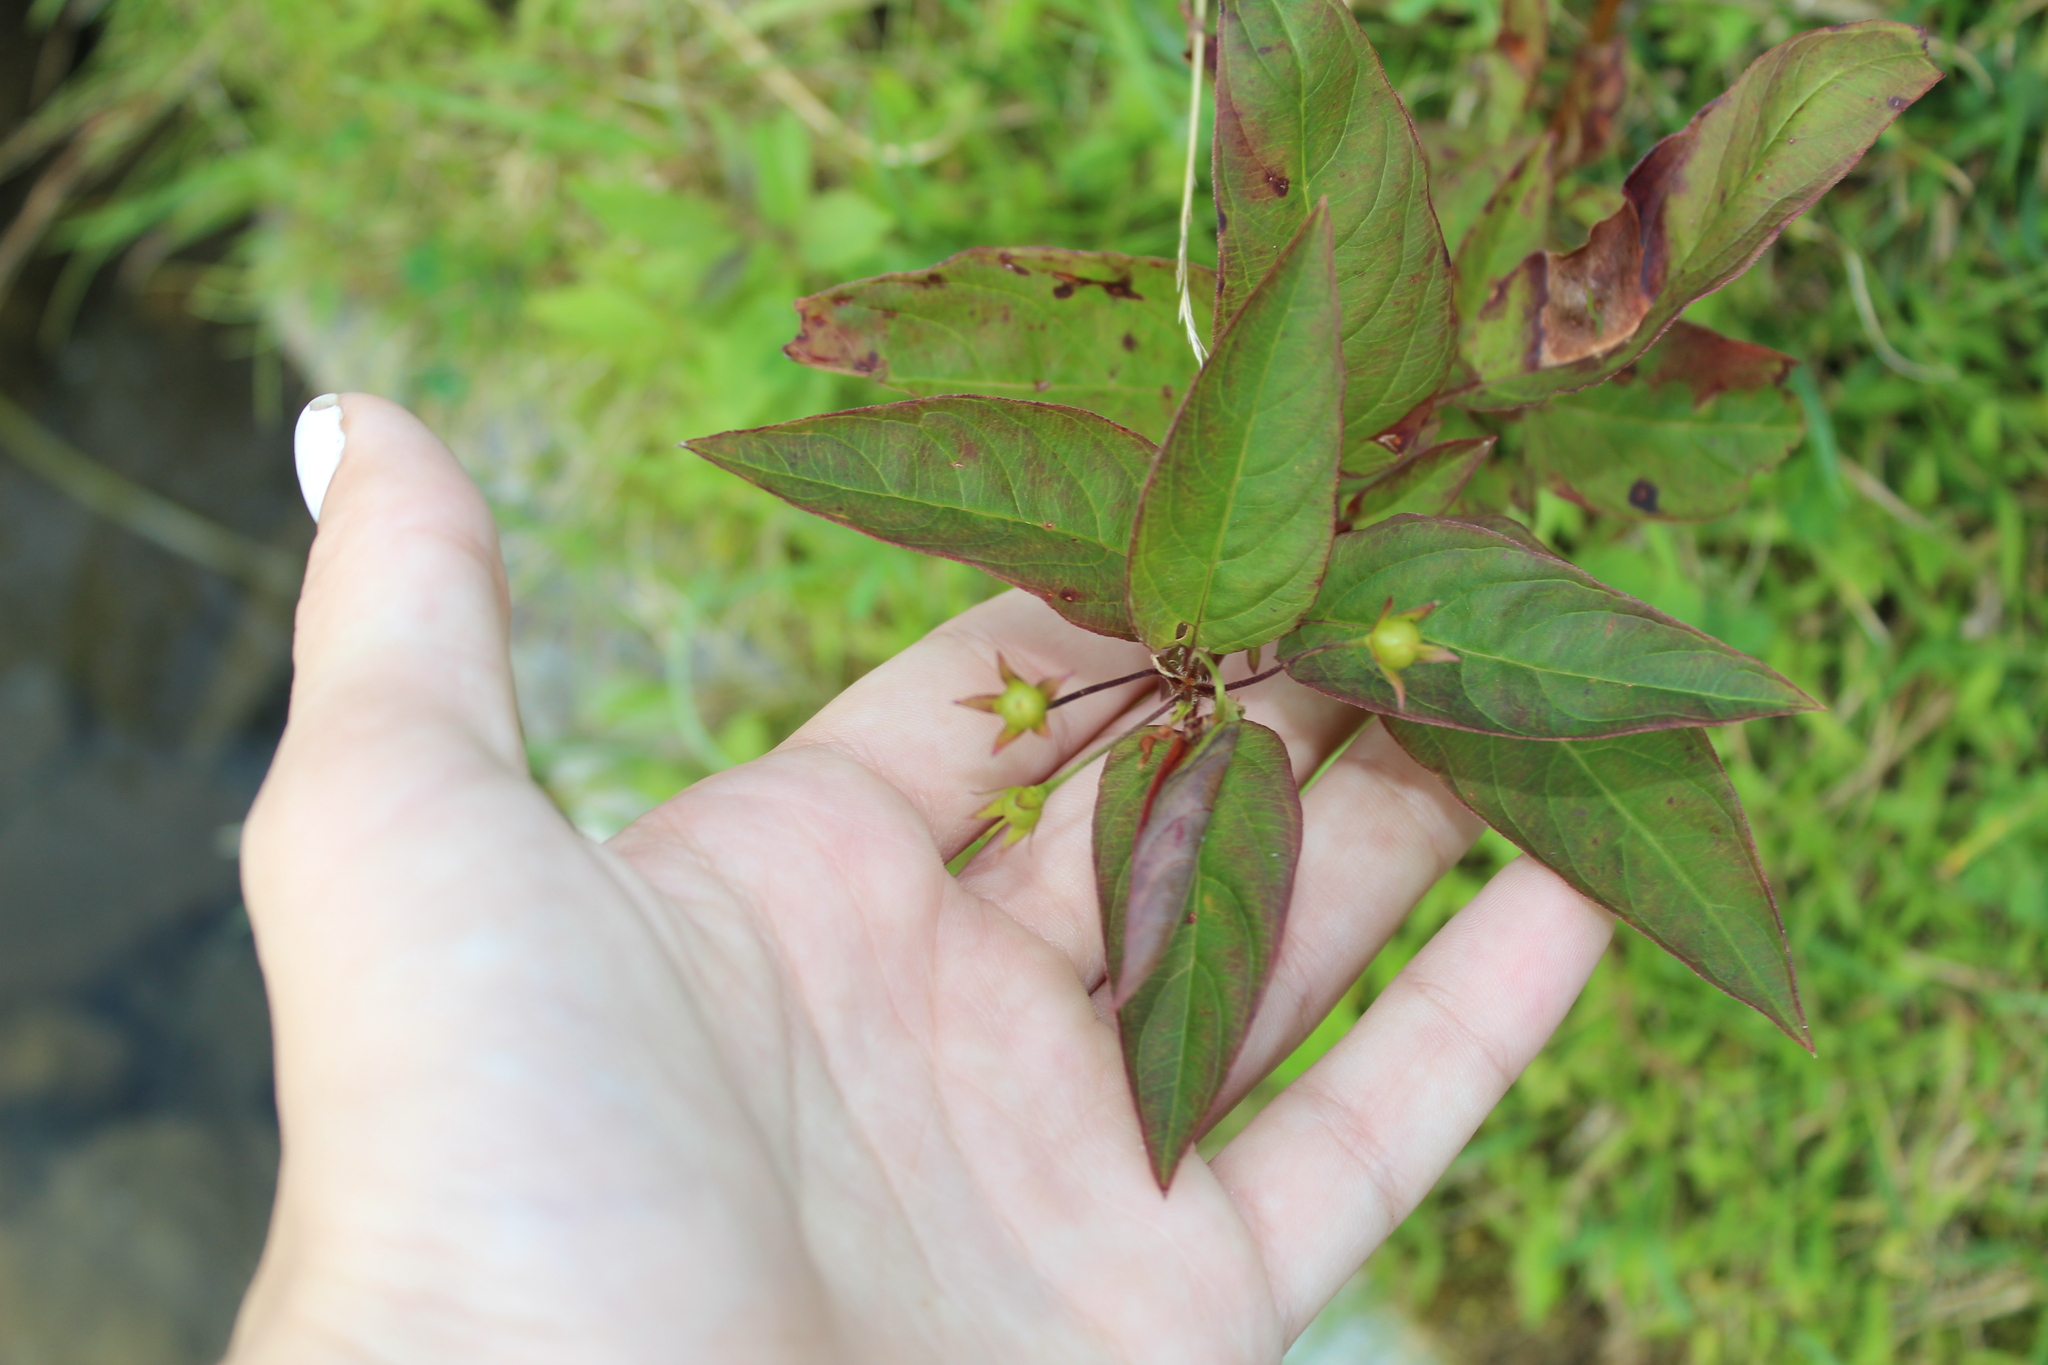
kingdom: Plantae
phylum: Tracheophyta
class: Magnoliopsida
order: Ericales
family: Primulaceae
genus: Lysimachia
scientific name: Lysimachia ciliata
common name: Fringed loosestrife
